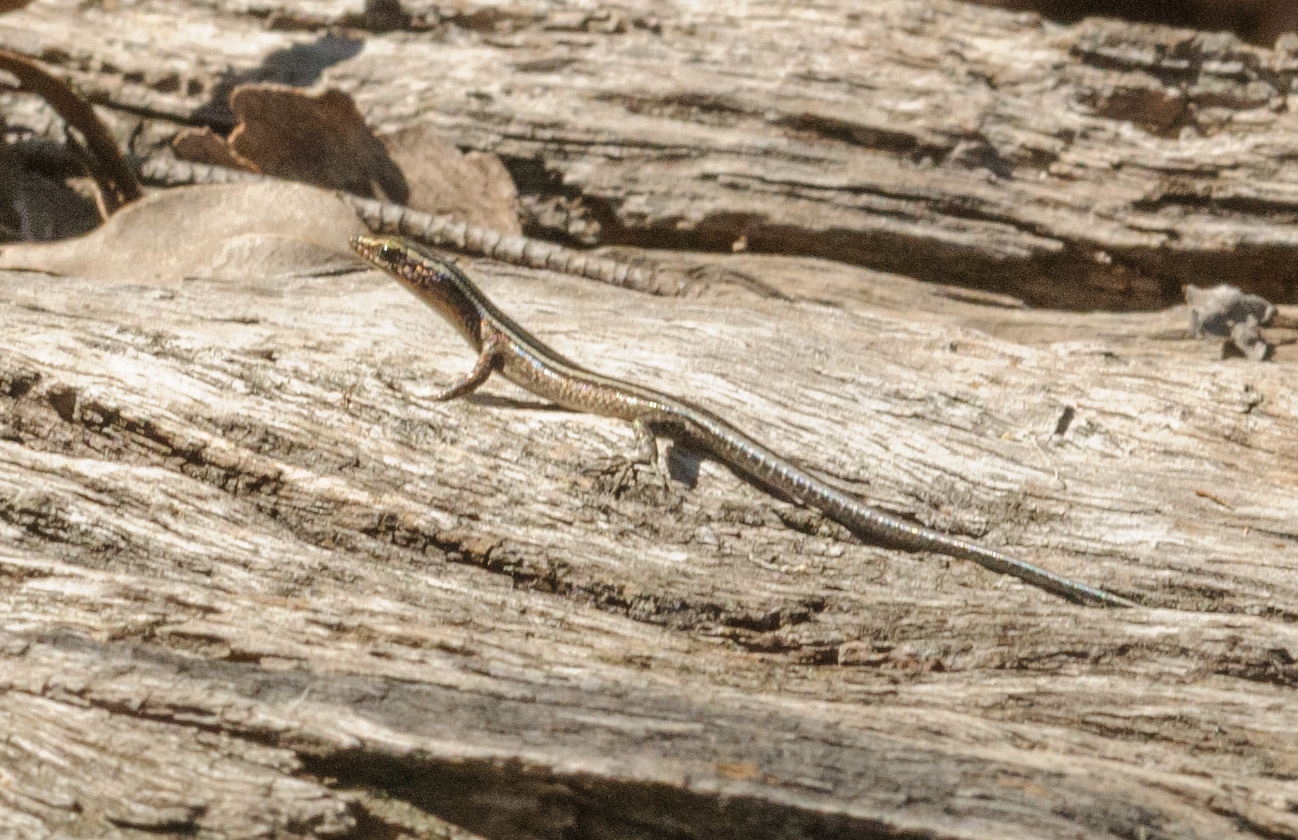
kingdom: Animalia
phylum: Chordata
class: Squamata
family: Scincidae
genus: Cryptoblepharus
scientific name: Cryptoblepharus pulcher
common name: Elegant snake-eyed skink
